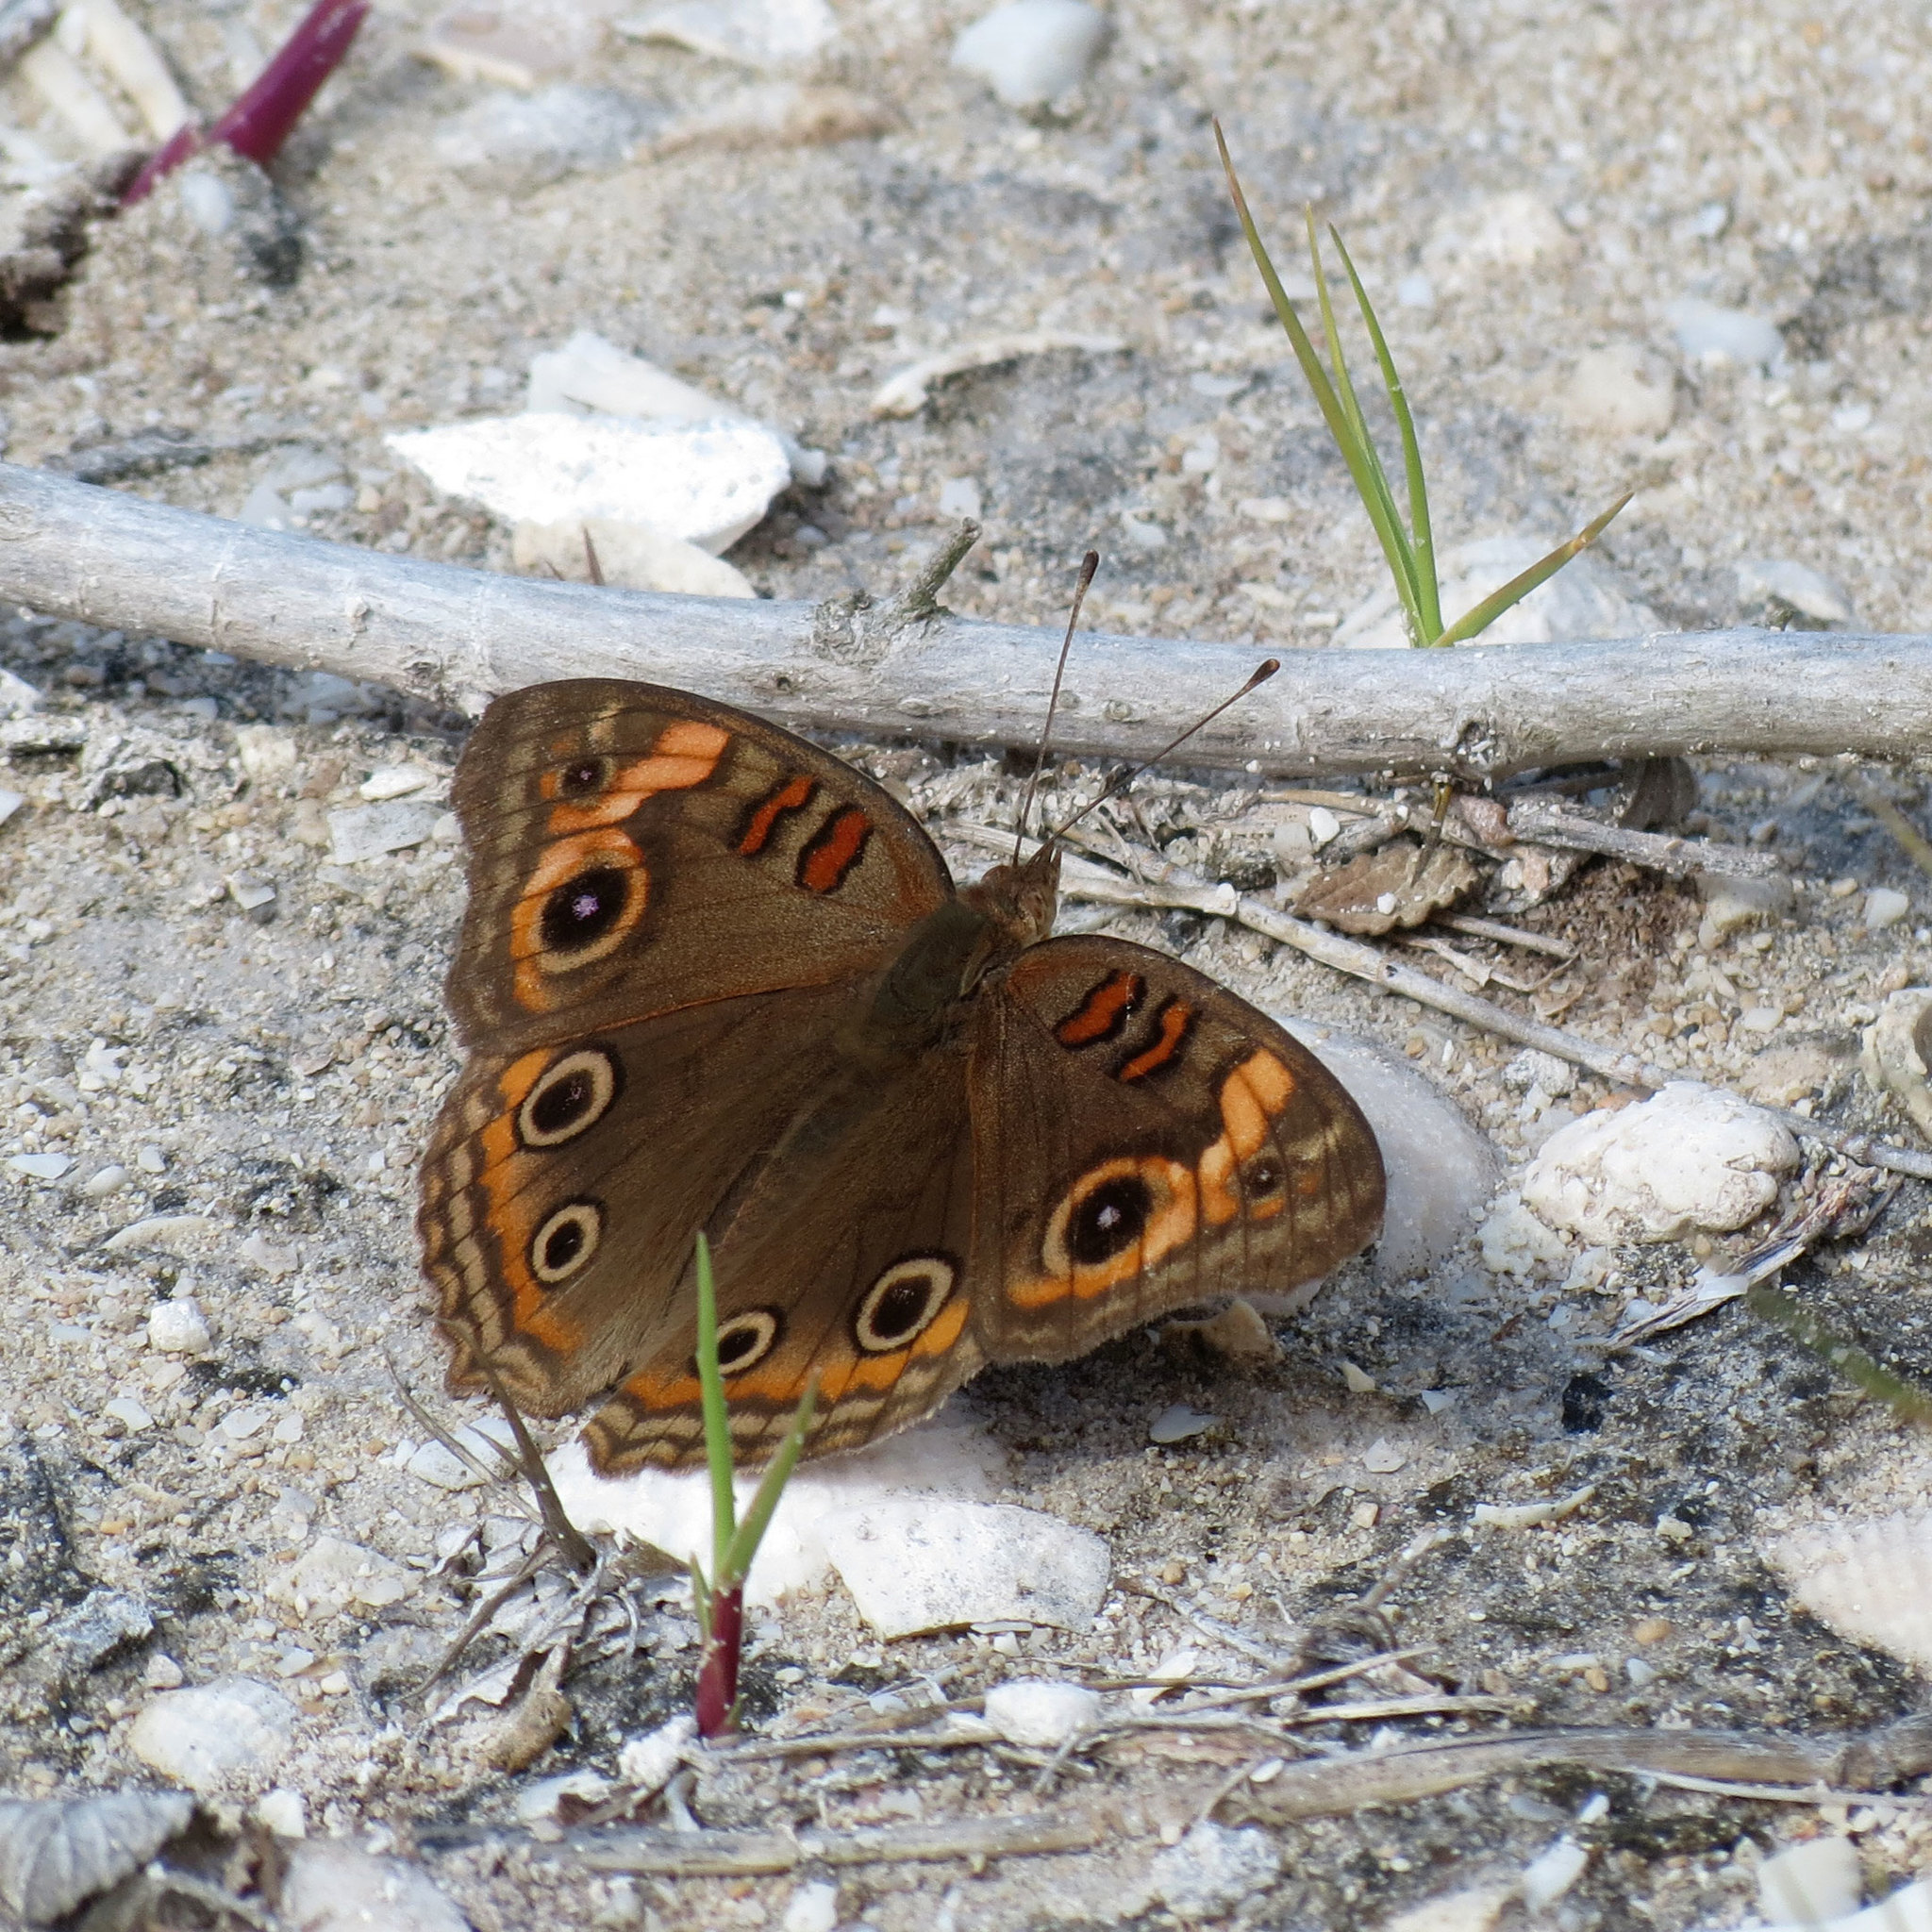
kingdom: Animalia
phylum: Arthropoda
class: Insecta
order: Lepidoptera
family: Nymphalidae
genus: Junonia
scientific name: Junonia neildi
